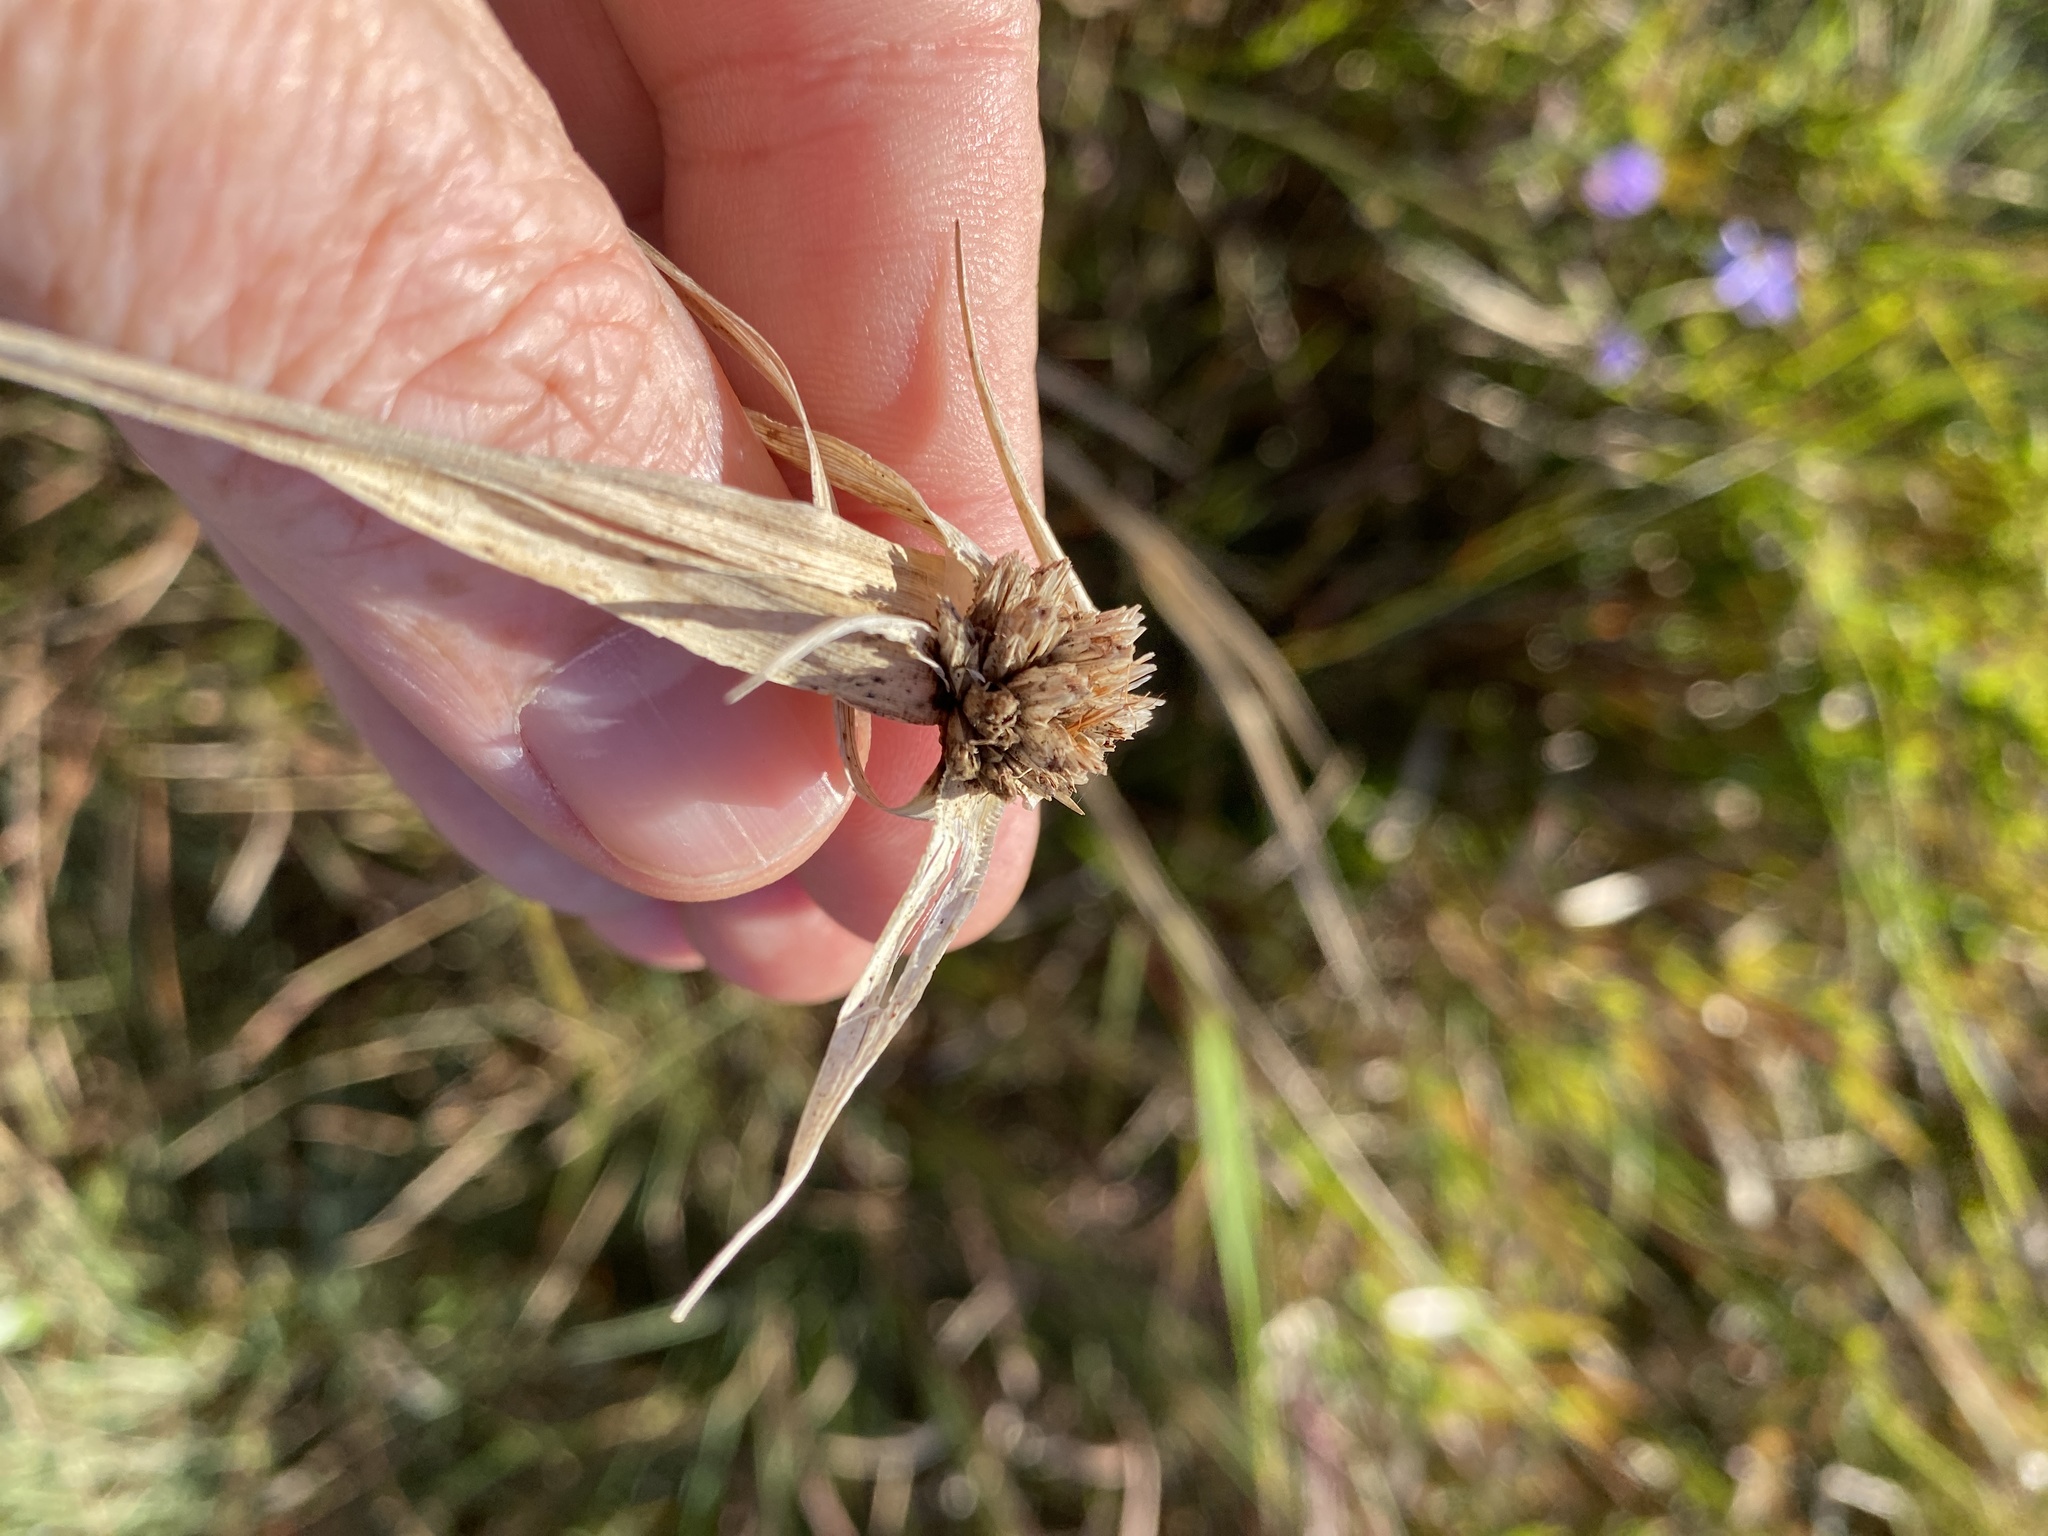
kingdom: Plantae
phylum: Tracheophyta
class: Liliopsida
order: Poales
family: Cyperaceae
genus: Rhynchospora
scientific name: Rhynchospora latifolia
